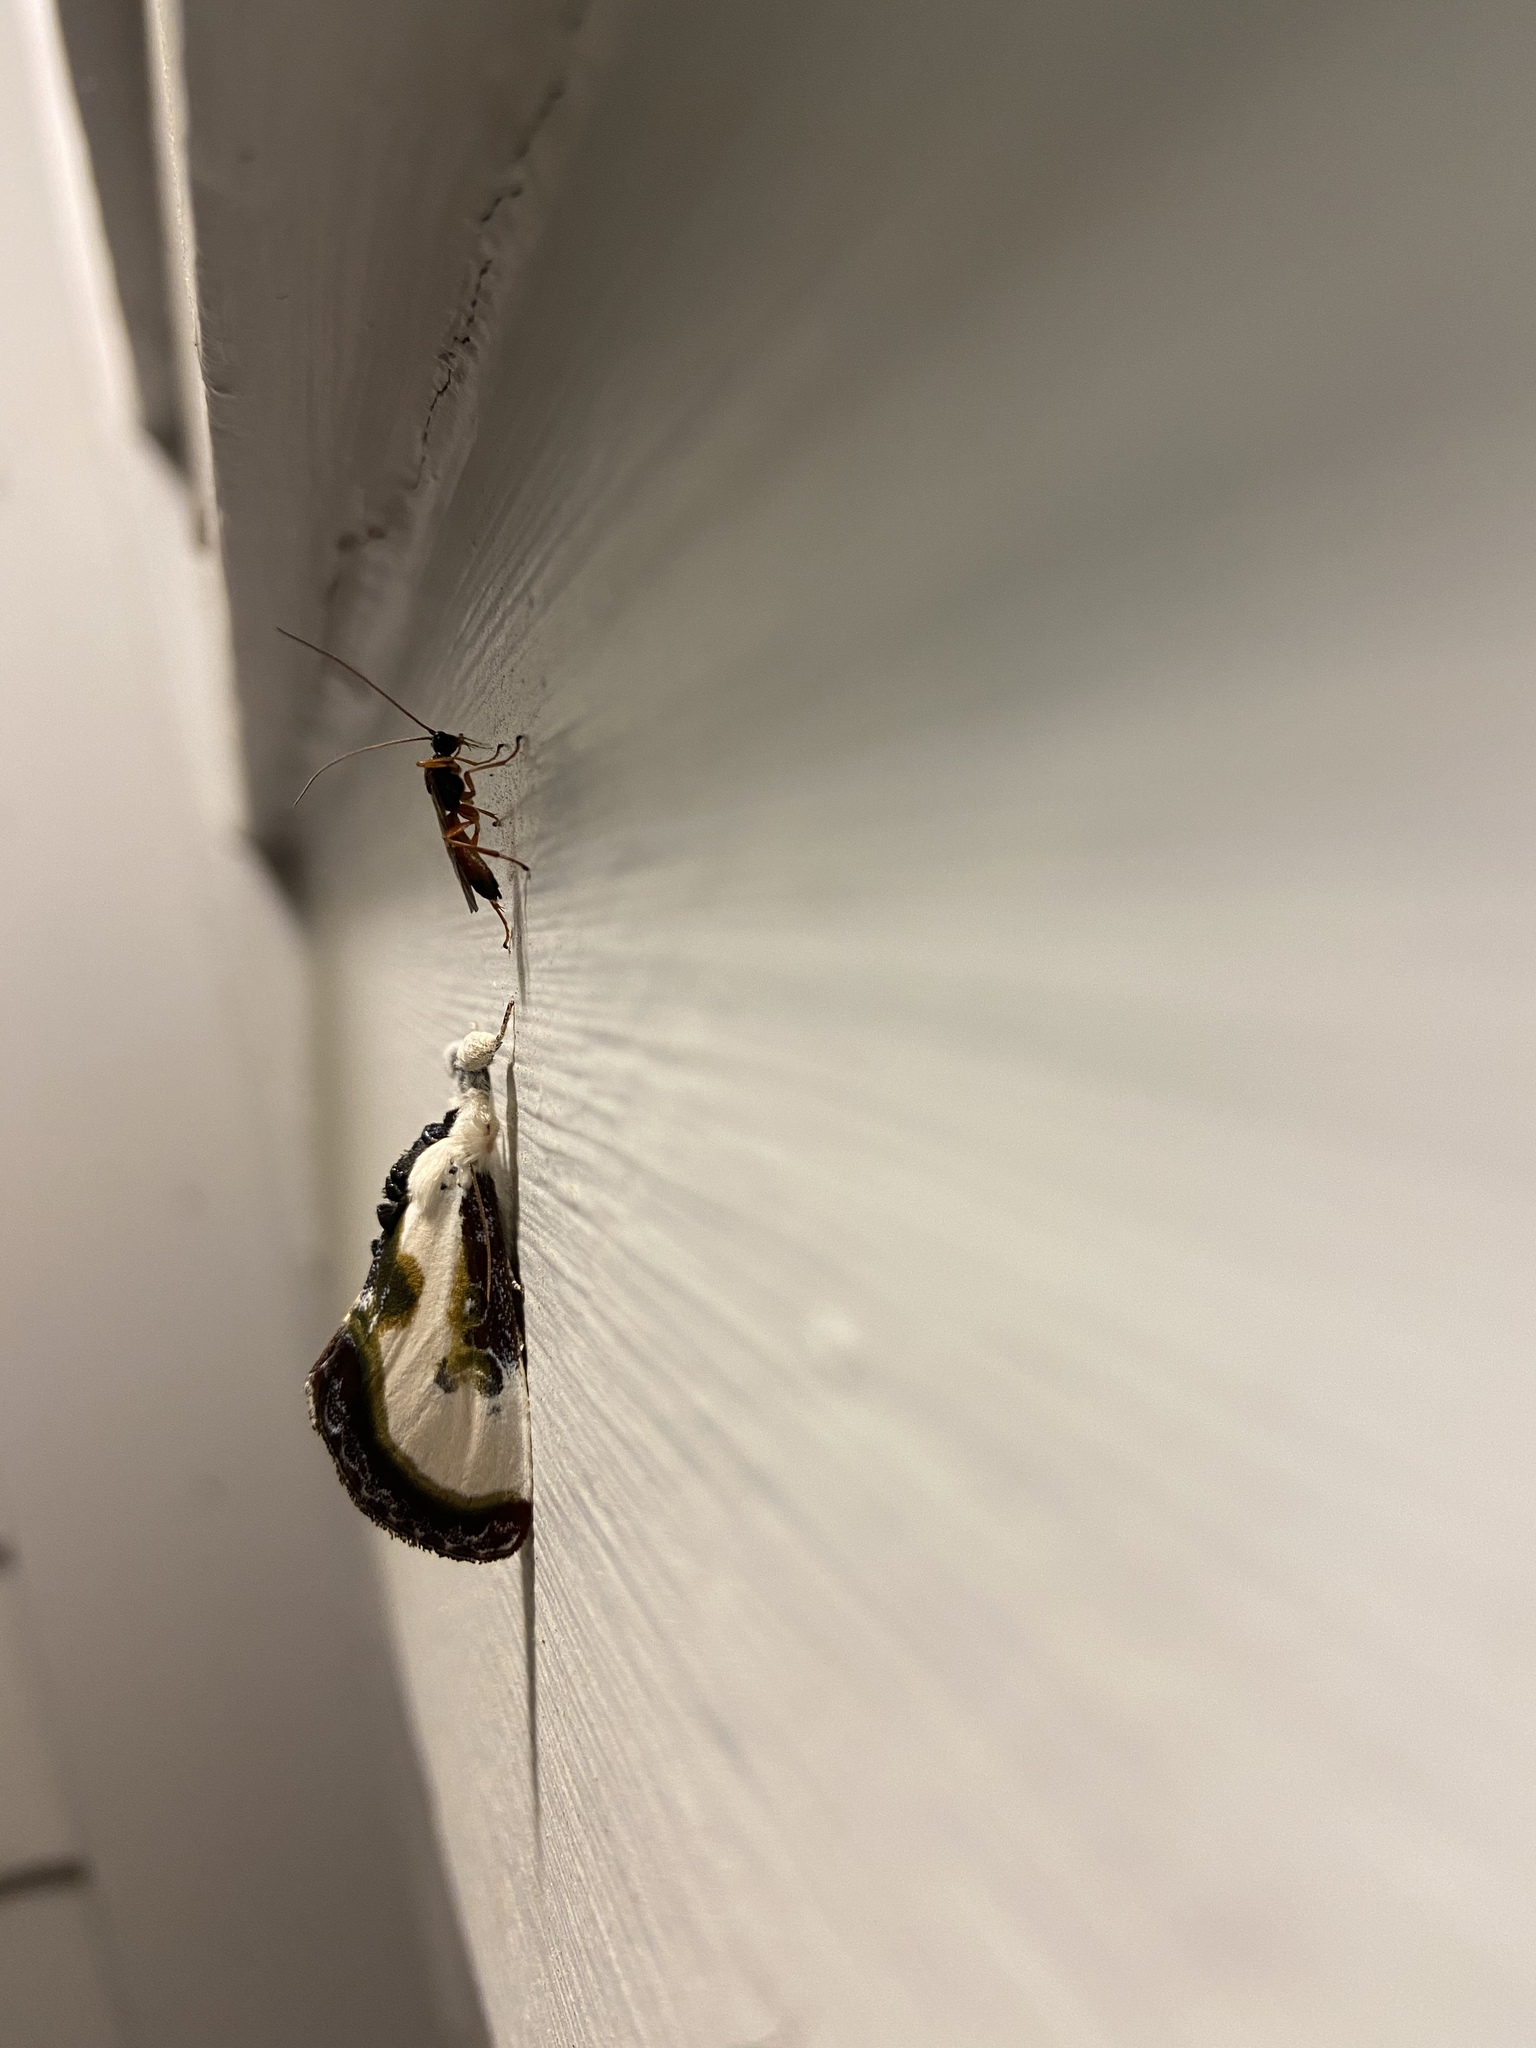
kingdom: Animalia
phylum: Arthropoda
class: Insecta
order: Lepidoptera
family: Noctuidae
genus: Eudryas
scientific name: Eudryas grata
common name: Beautiful wood-nymph
